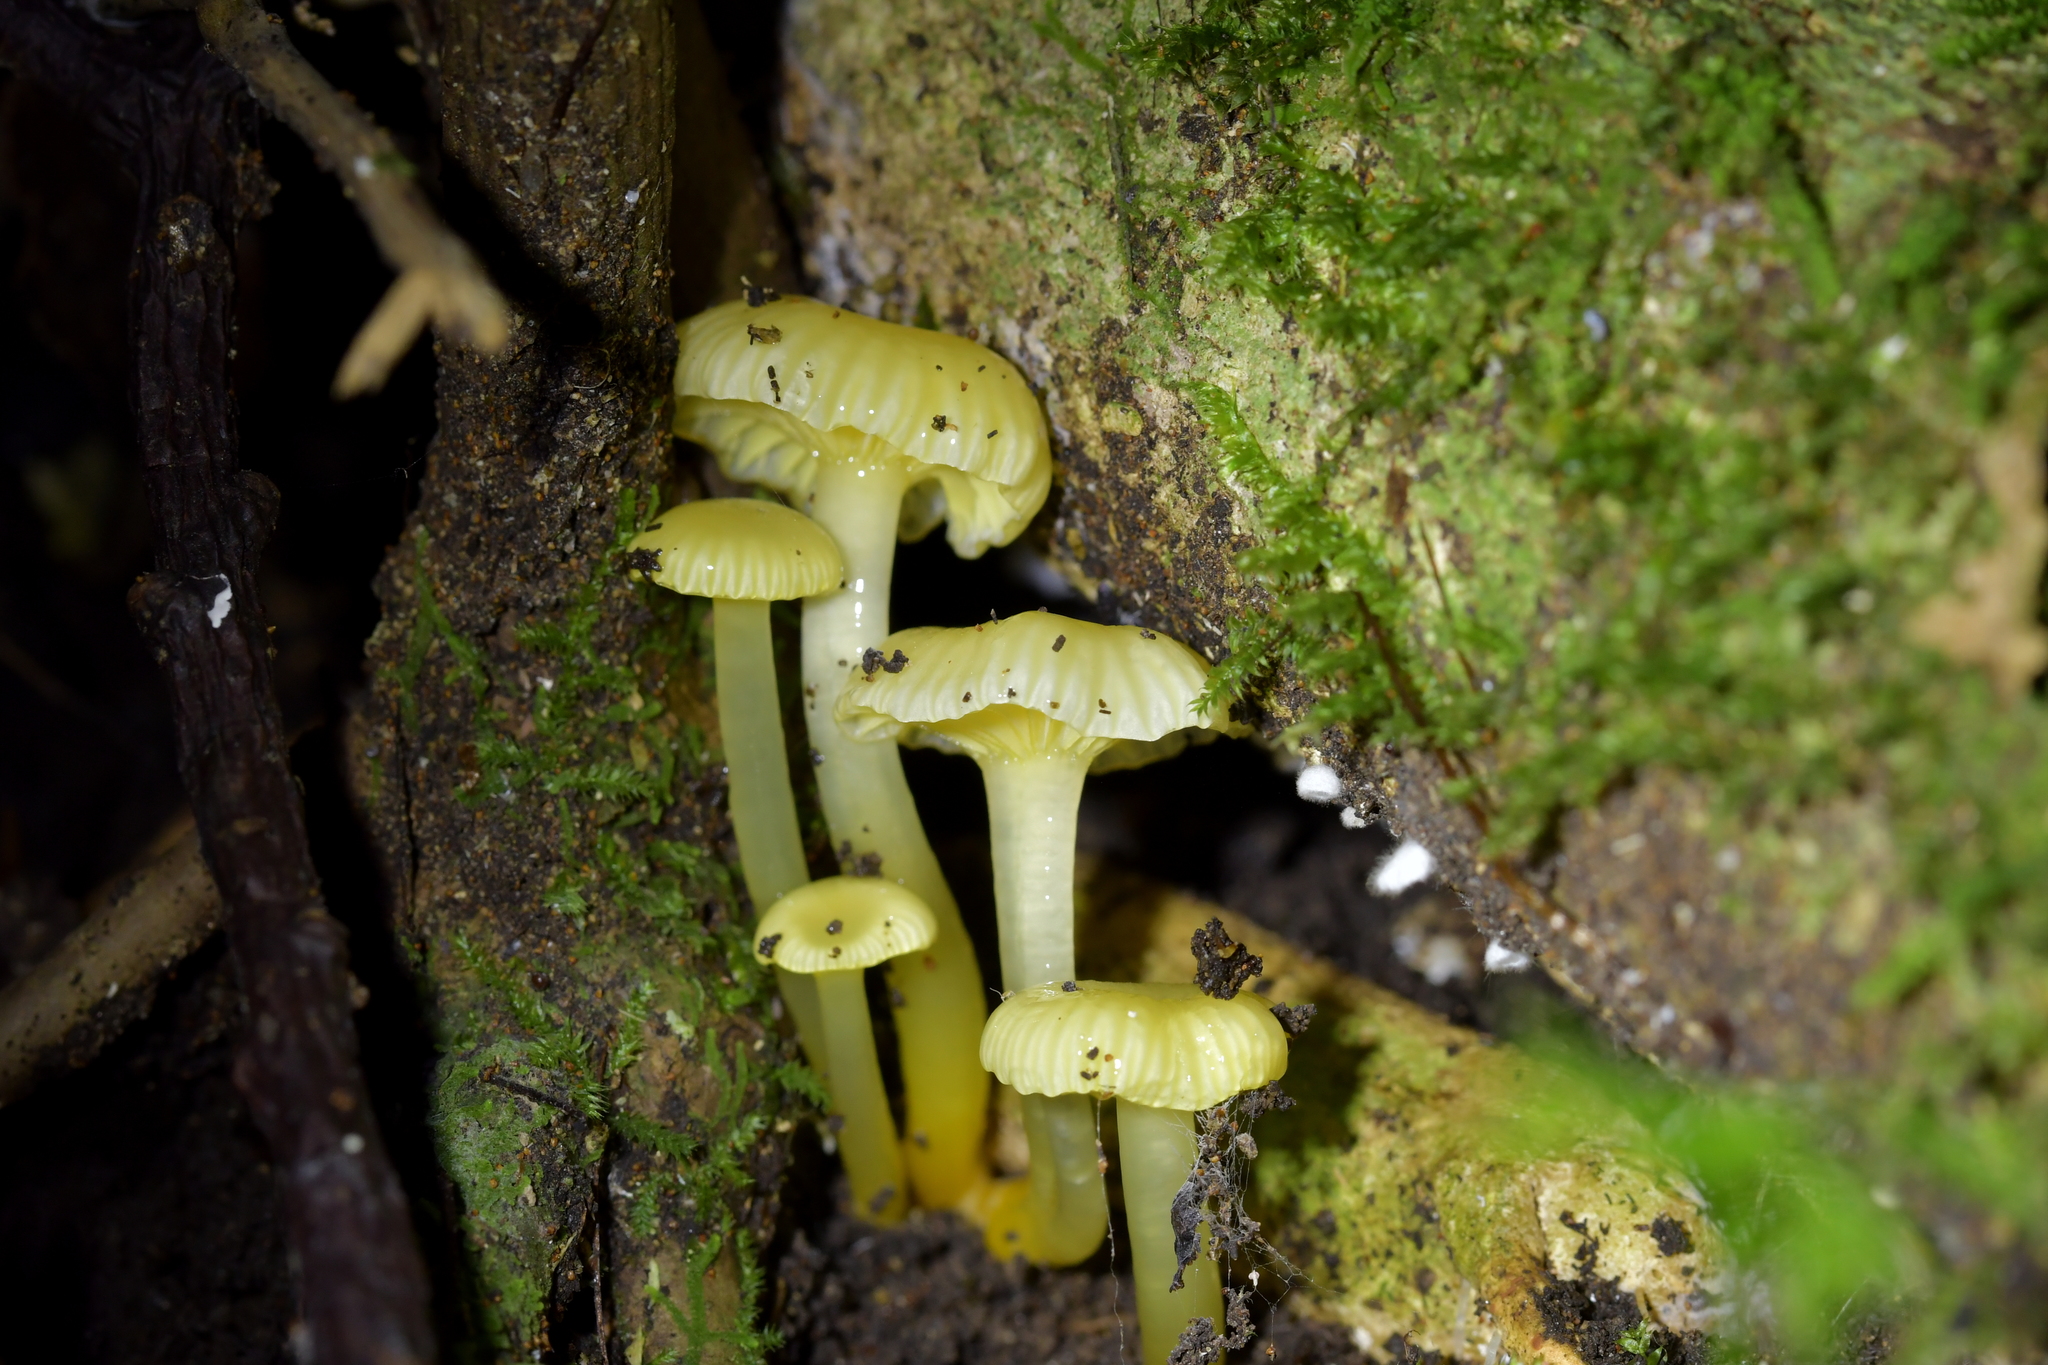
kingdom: Fungi
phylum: Basidiomycota
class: Agaricomycetes
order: Agaricales
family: Hygrophoraceae
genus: Gloioxanthomyces
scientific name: Gloioxanthomyces
